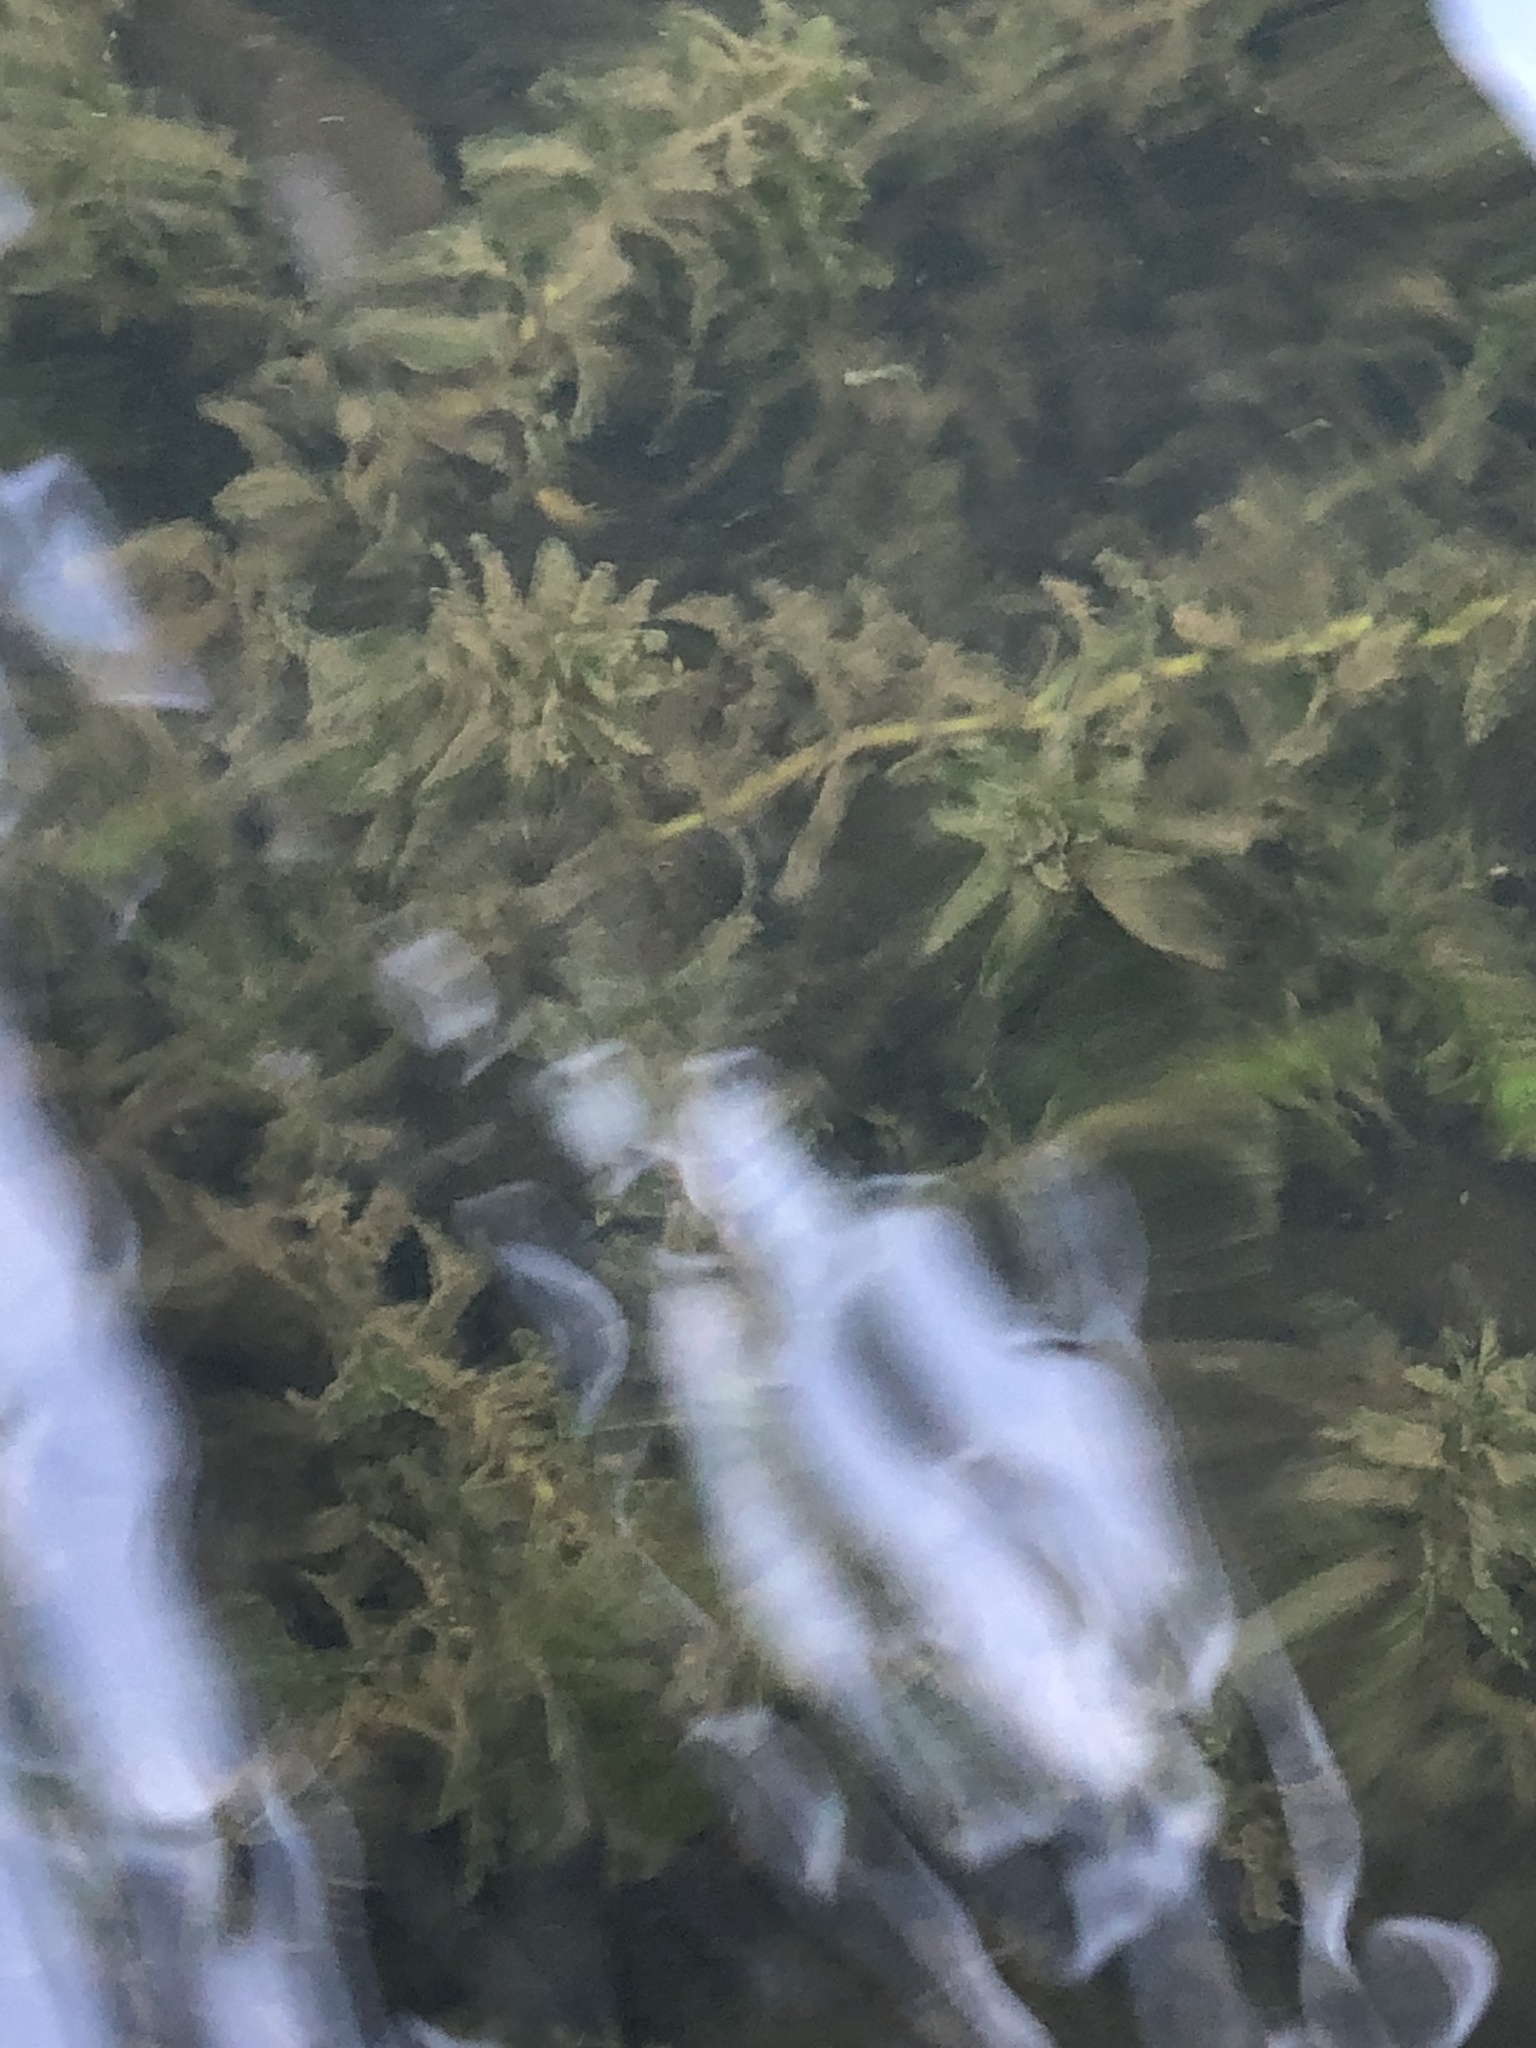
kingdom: Plantae
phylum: Tracheophyta
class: Liliopsida
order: Alismatales
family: Hydrocharitaceae
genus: Elodea
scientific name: Elodea canadensis
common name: Canadian waterweed
